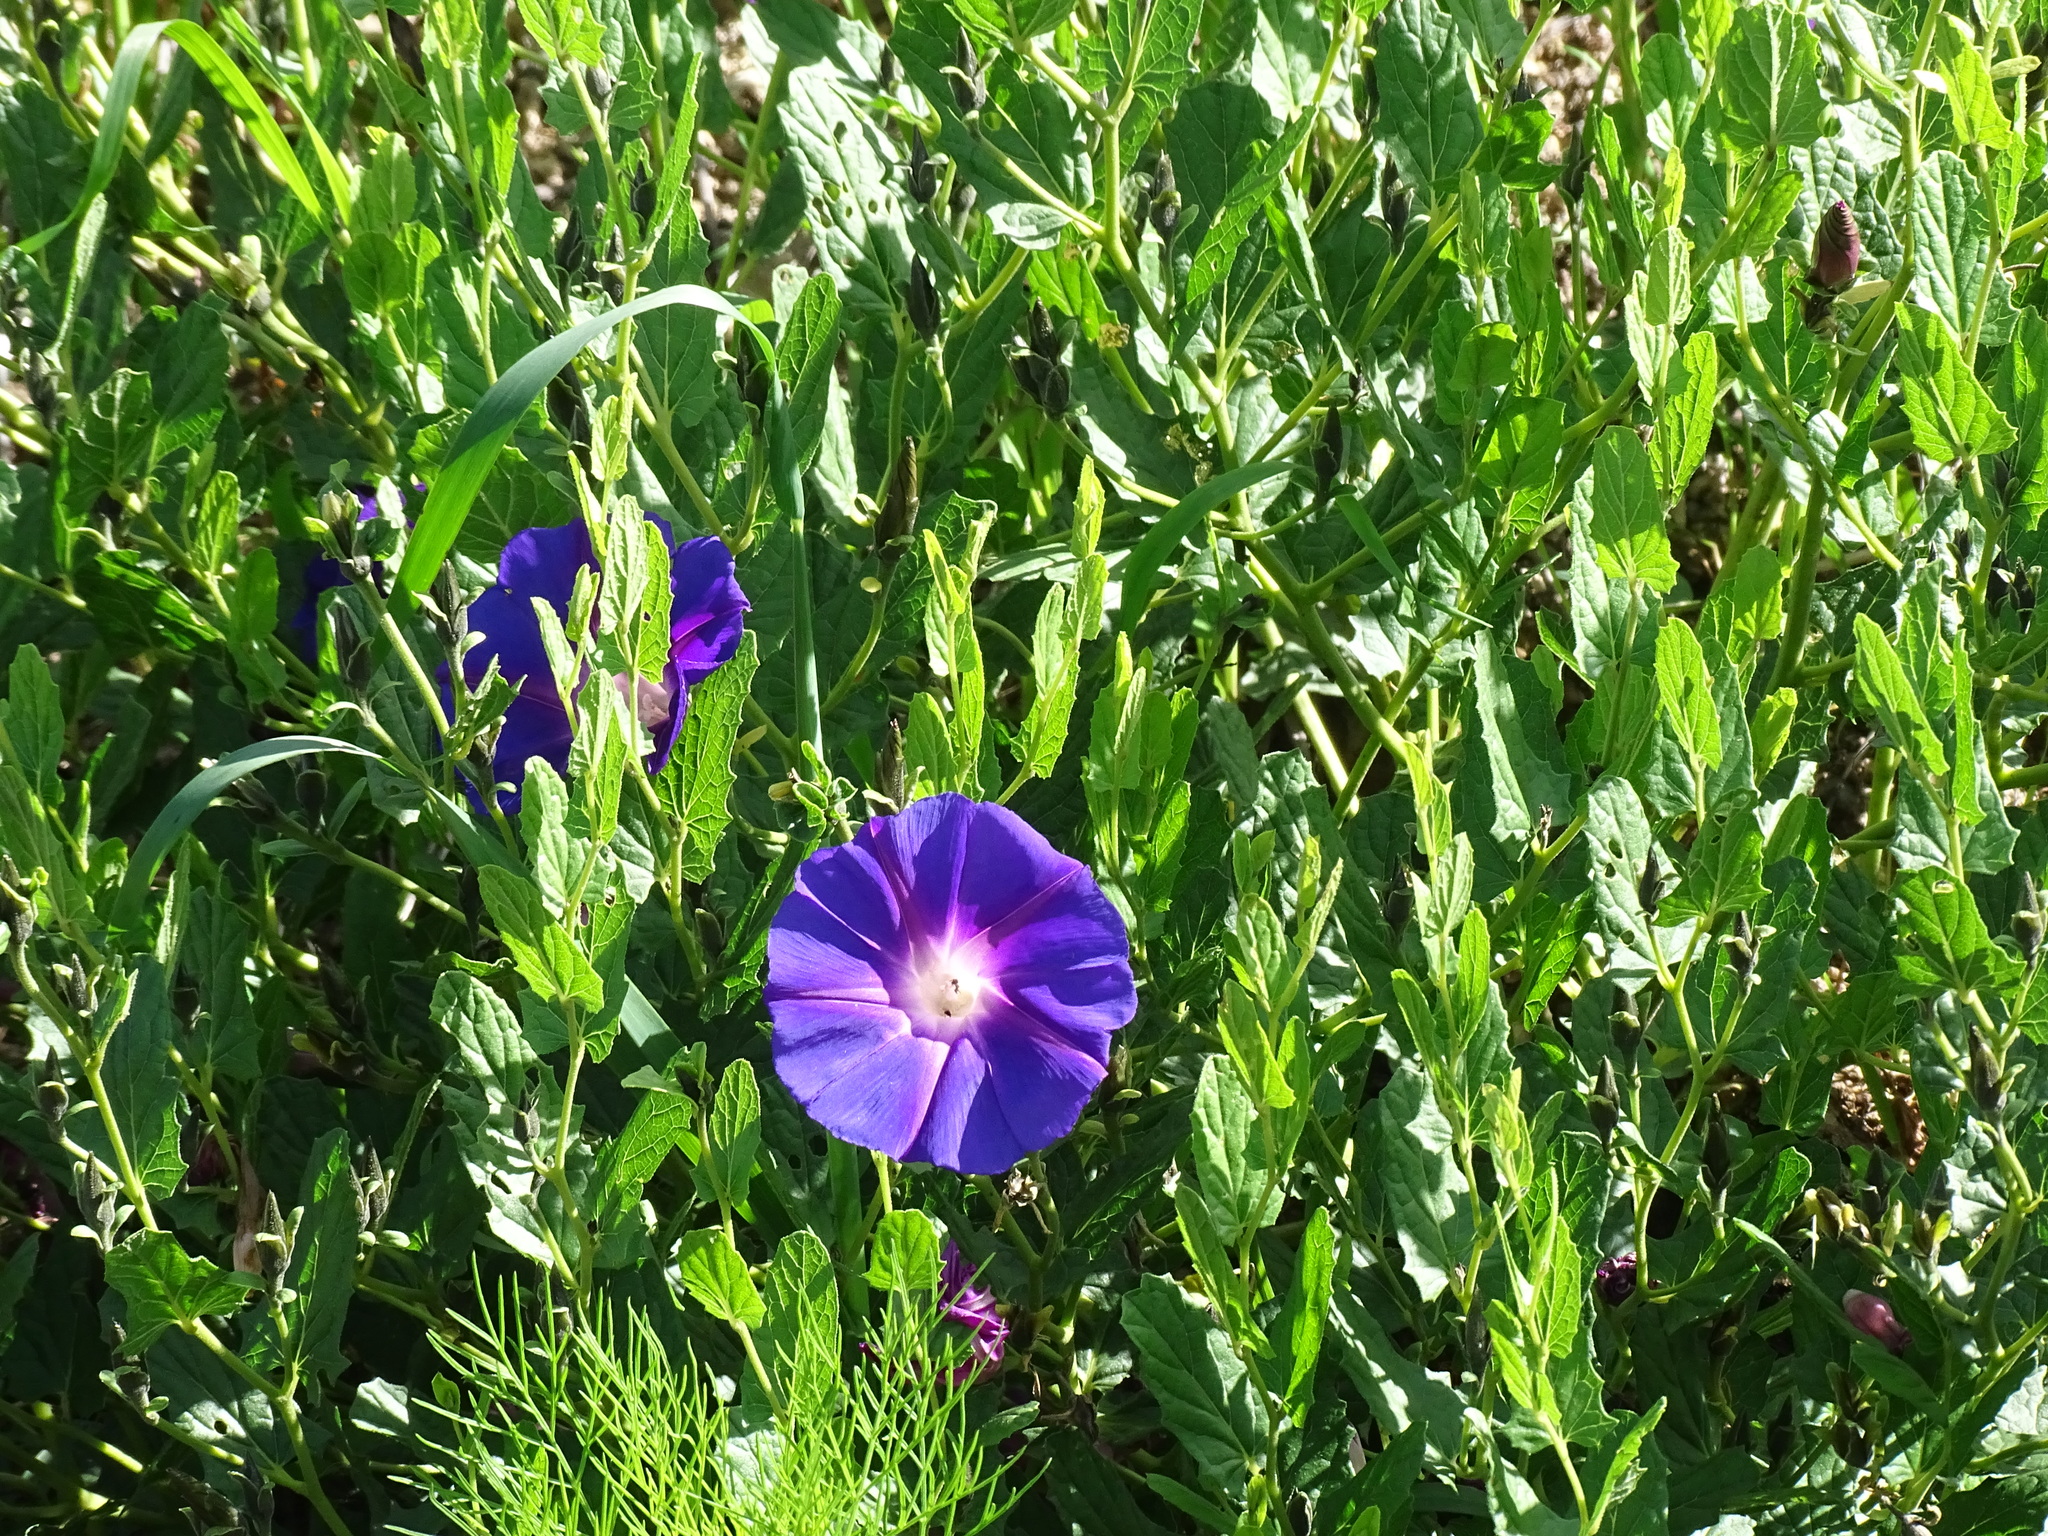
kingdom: Plantae
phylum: Tracheophyta
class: Magnoliopsida
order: Solanales
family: Convolvulaceae
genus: Ipomoea
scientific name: Ipomoea stans
